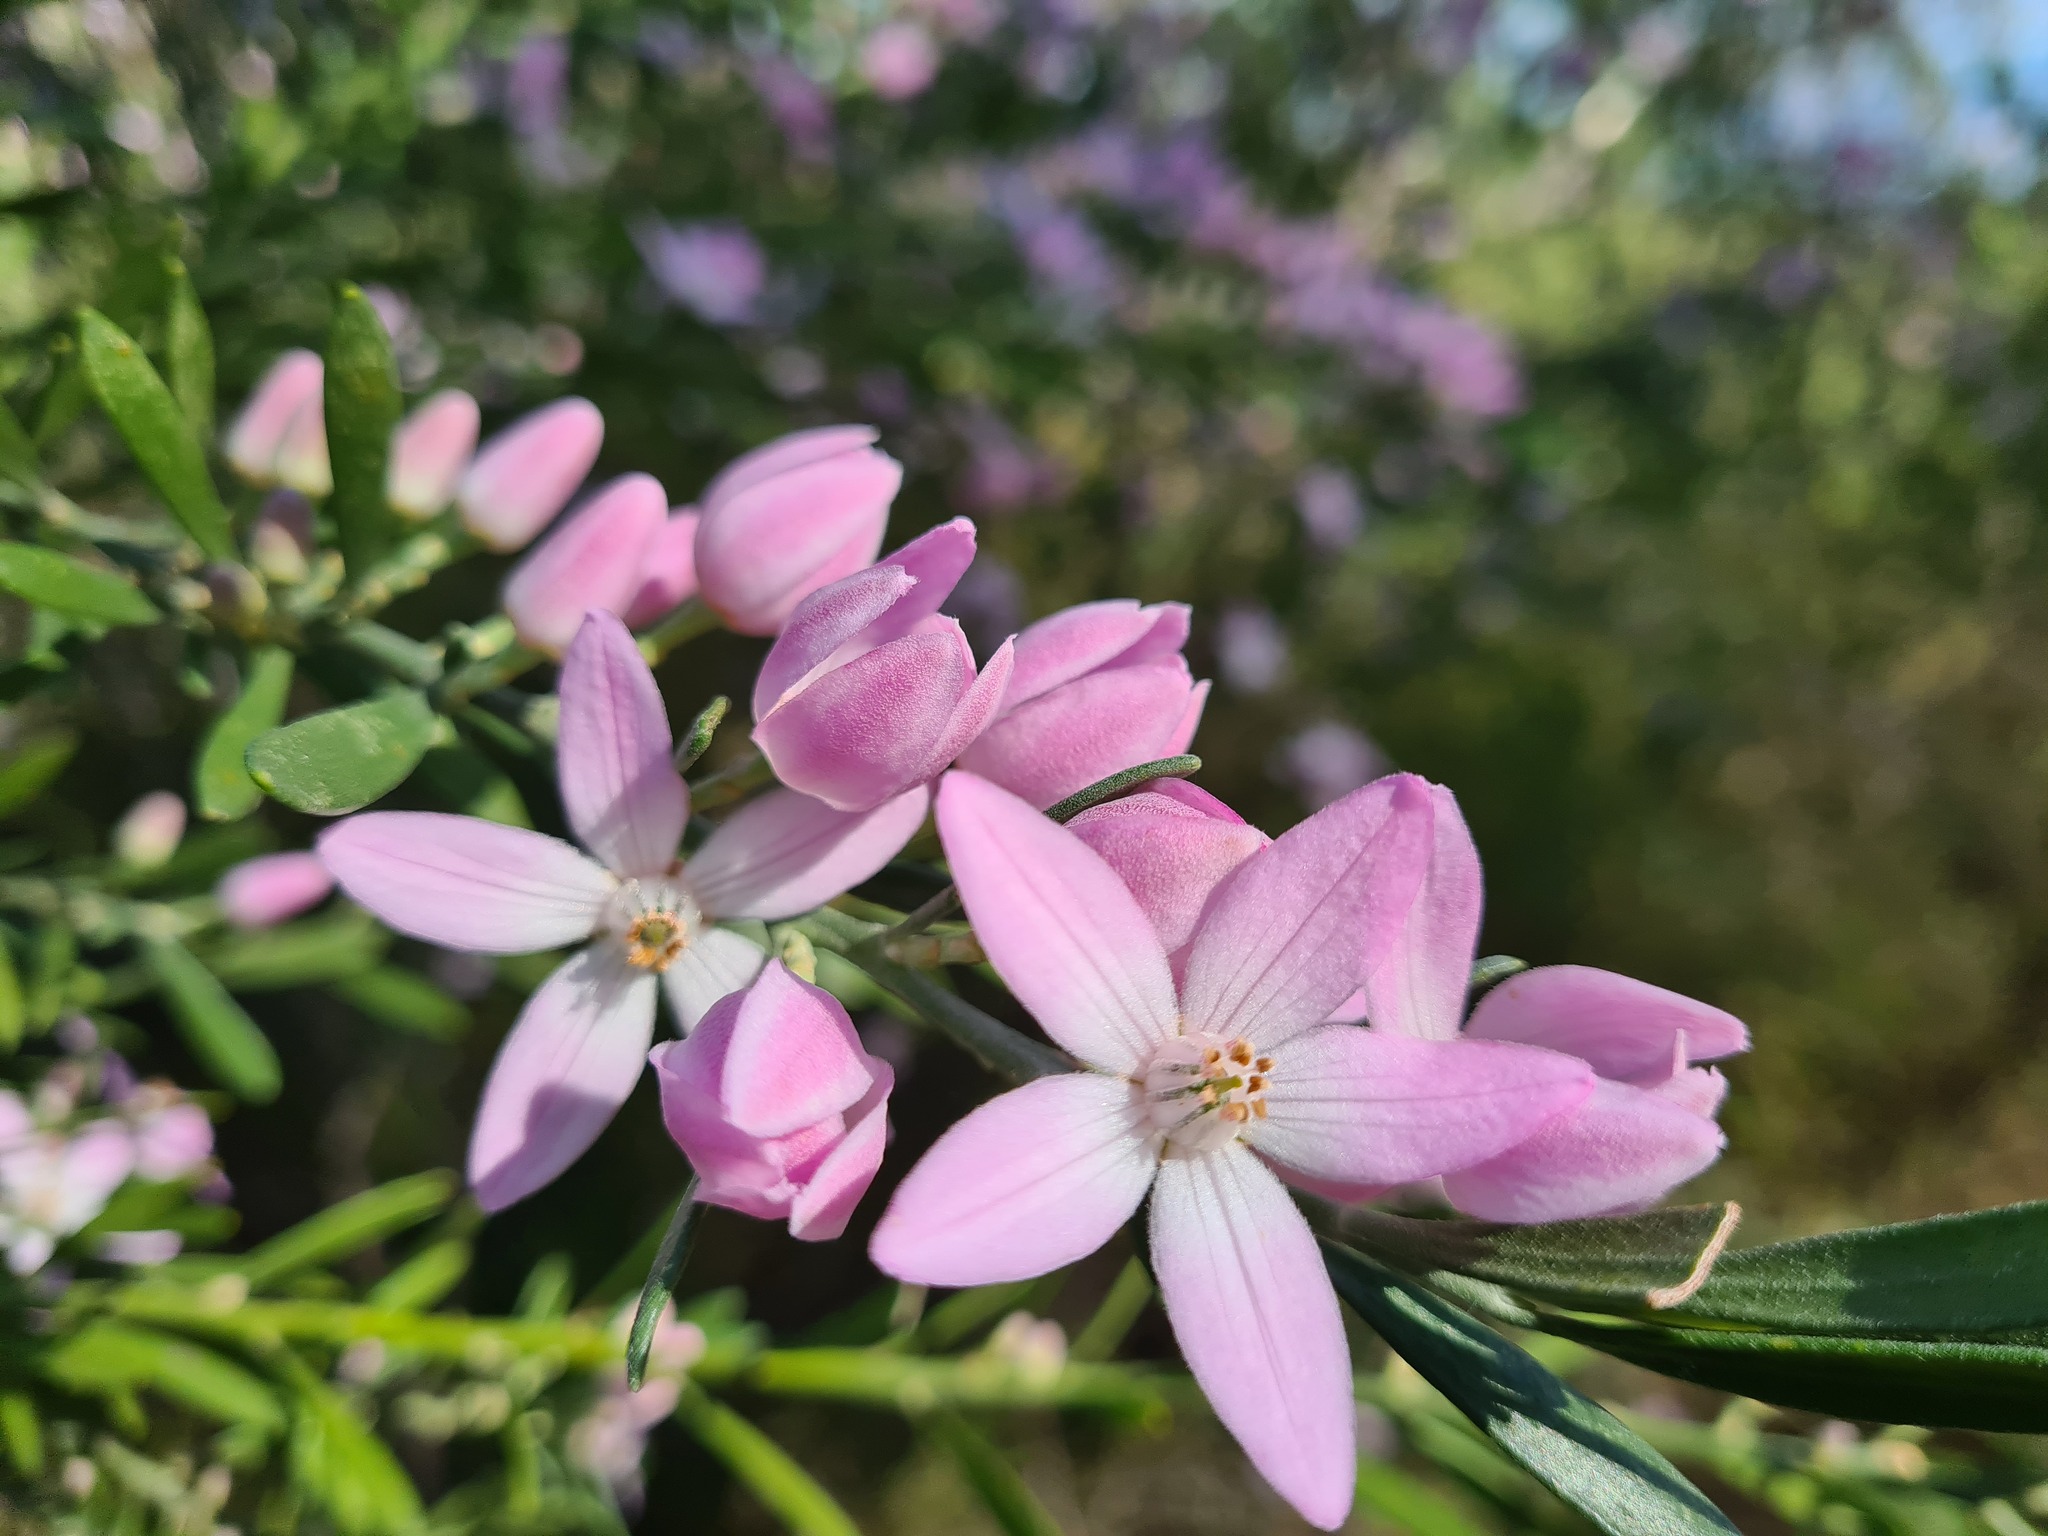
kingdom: Plantae
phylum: Tracheophyta
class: Magnoliopsida
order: Sapindales
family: Rutaceae
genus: Eriostemon
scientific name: Eriostemon australasius
